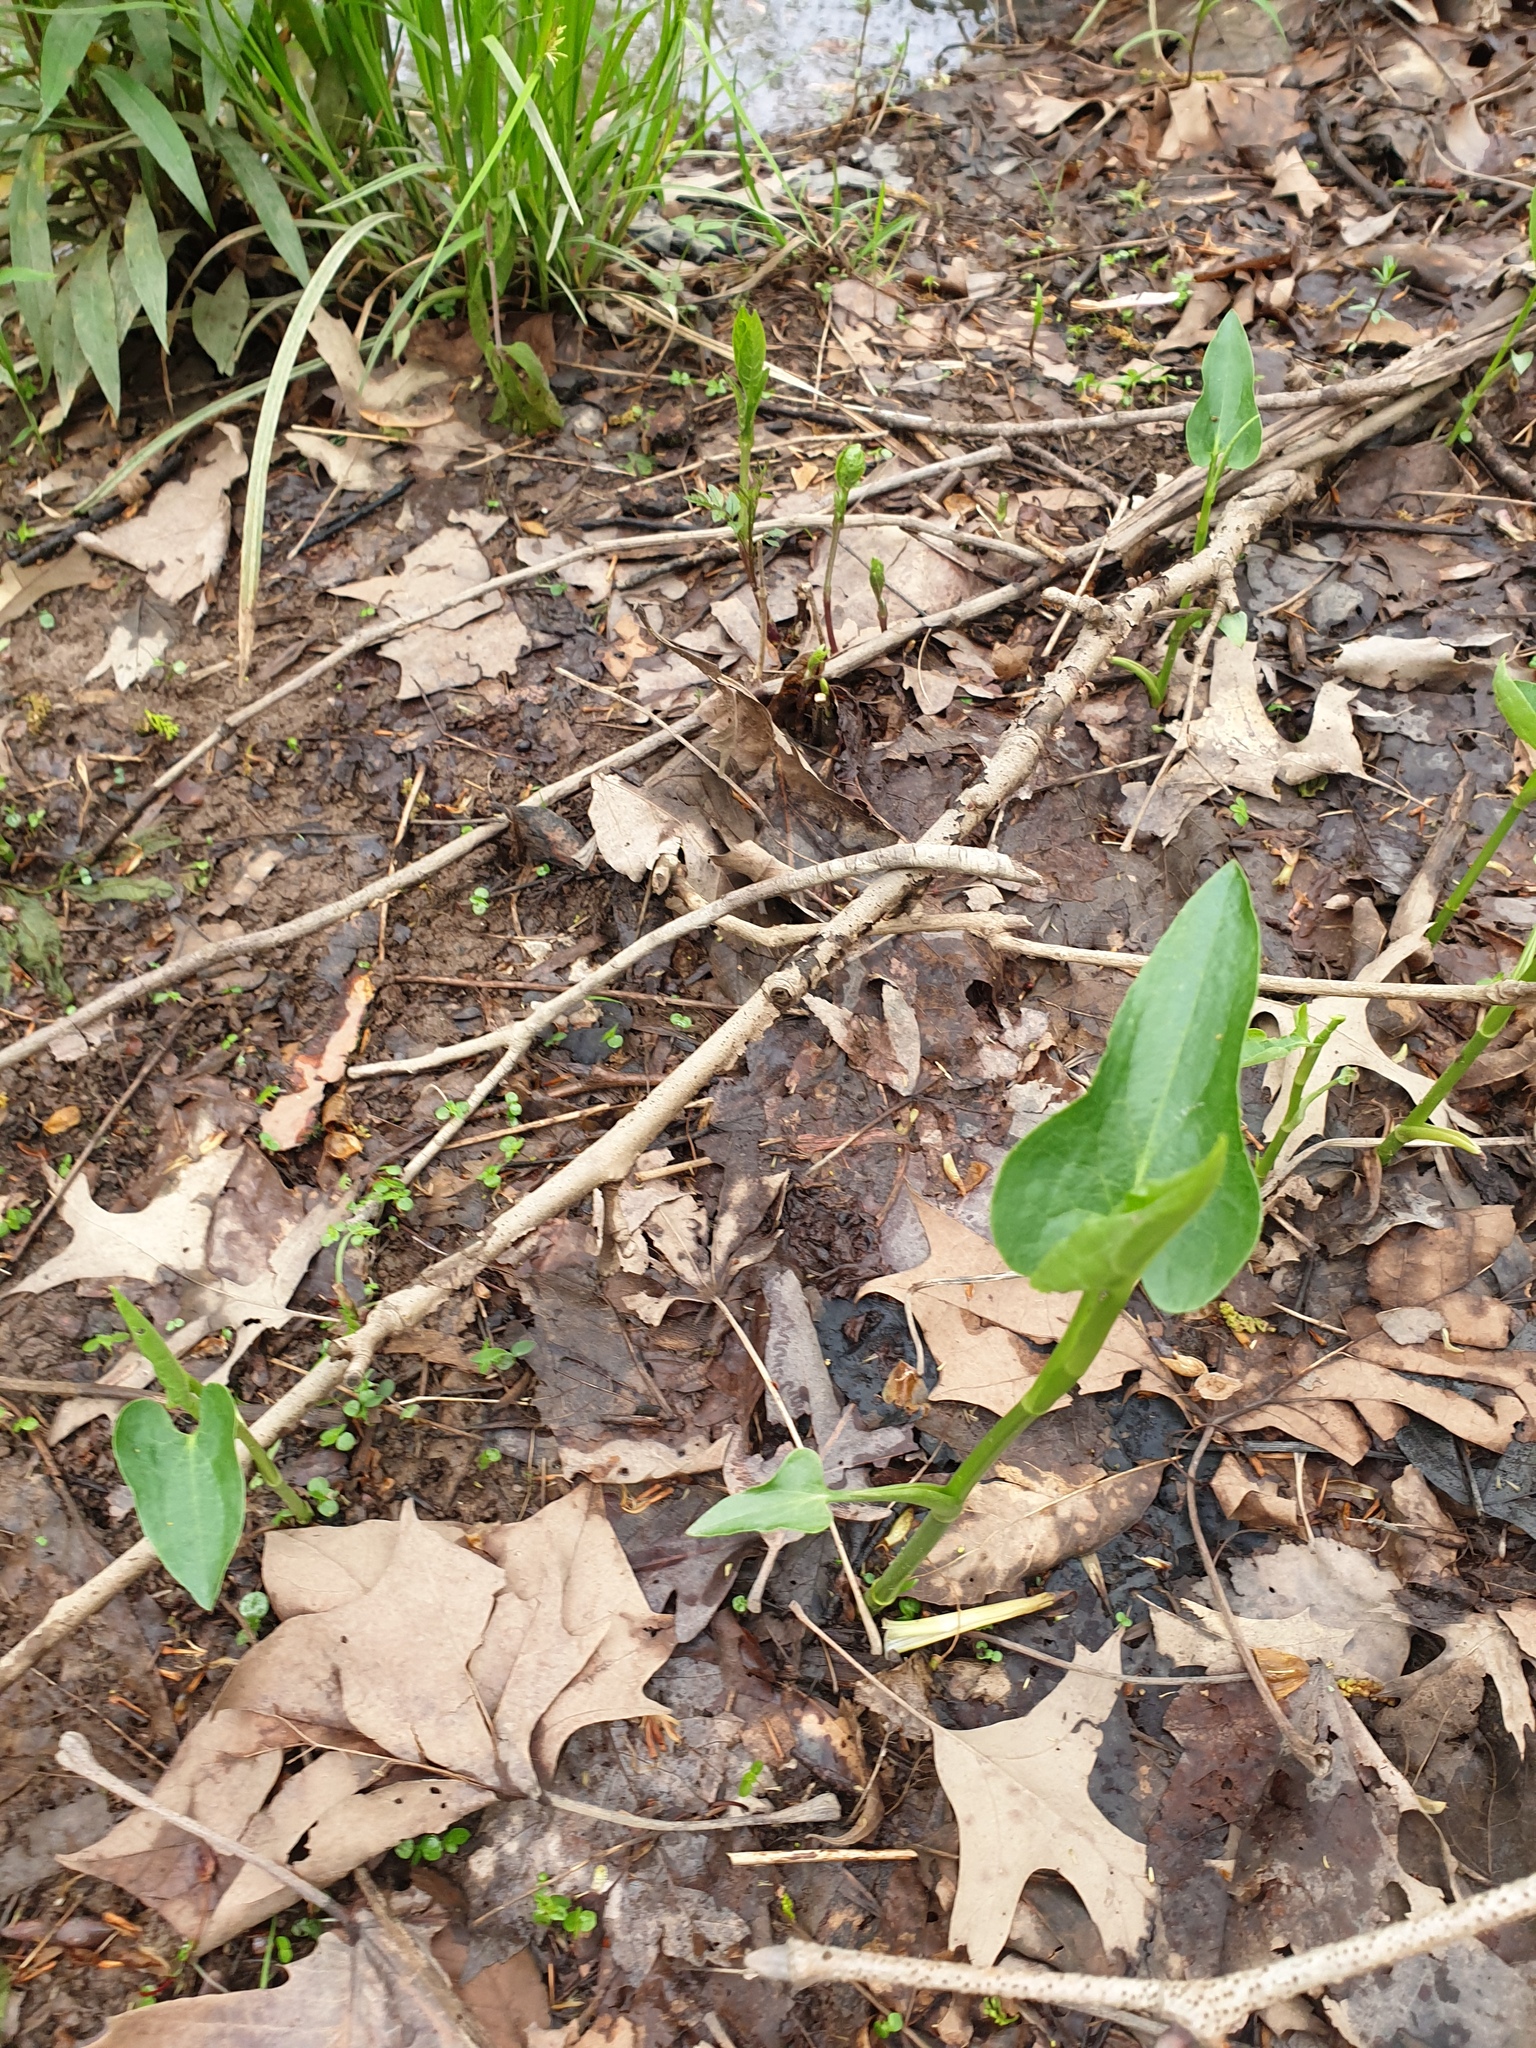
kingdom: Plantae
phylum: Tracheophyta
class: Magnoliopsida
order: Piperales
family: Saururaceae
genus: Saururus
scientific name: Saururus cernuus
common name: Lizard's-tail
